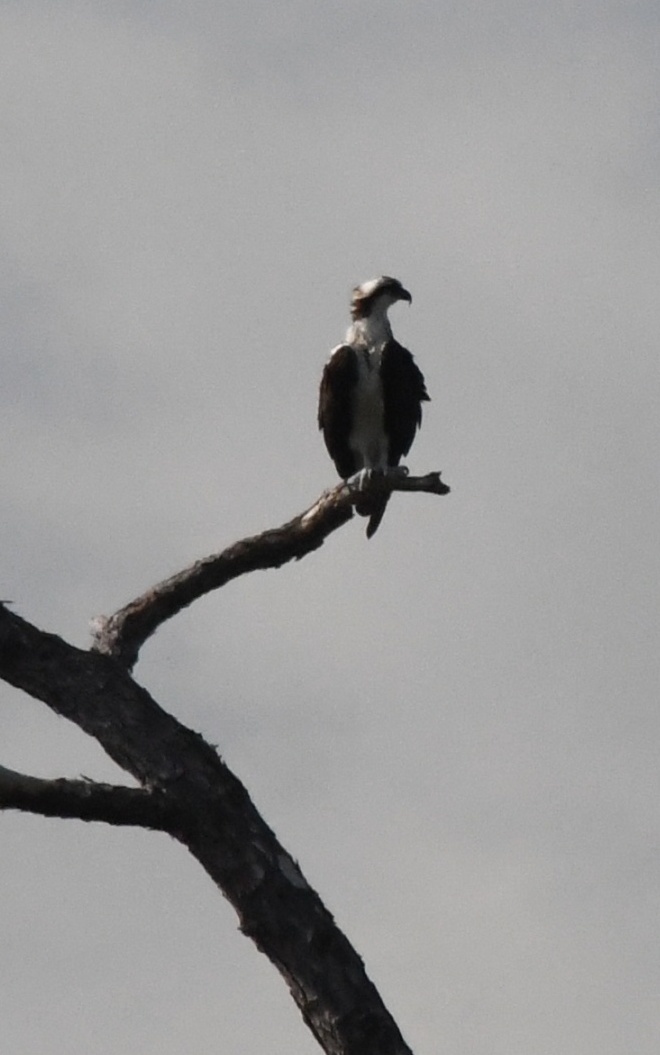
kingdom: Animalia
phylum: Chordata
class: Aves
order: Accipitriformes
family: Pandionidae
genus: Pandion
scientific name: Pandion haliaetus
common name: Osprey
